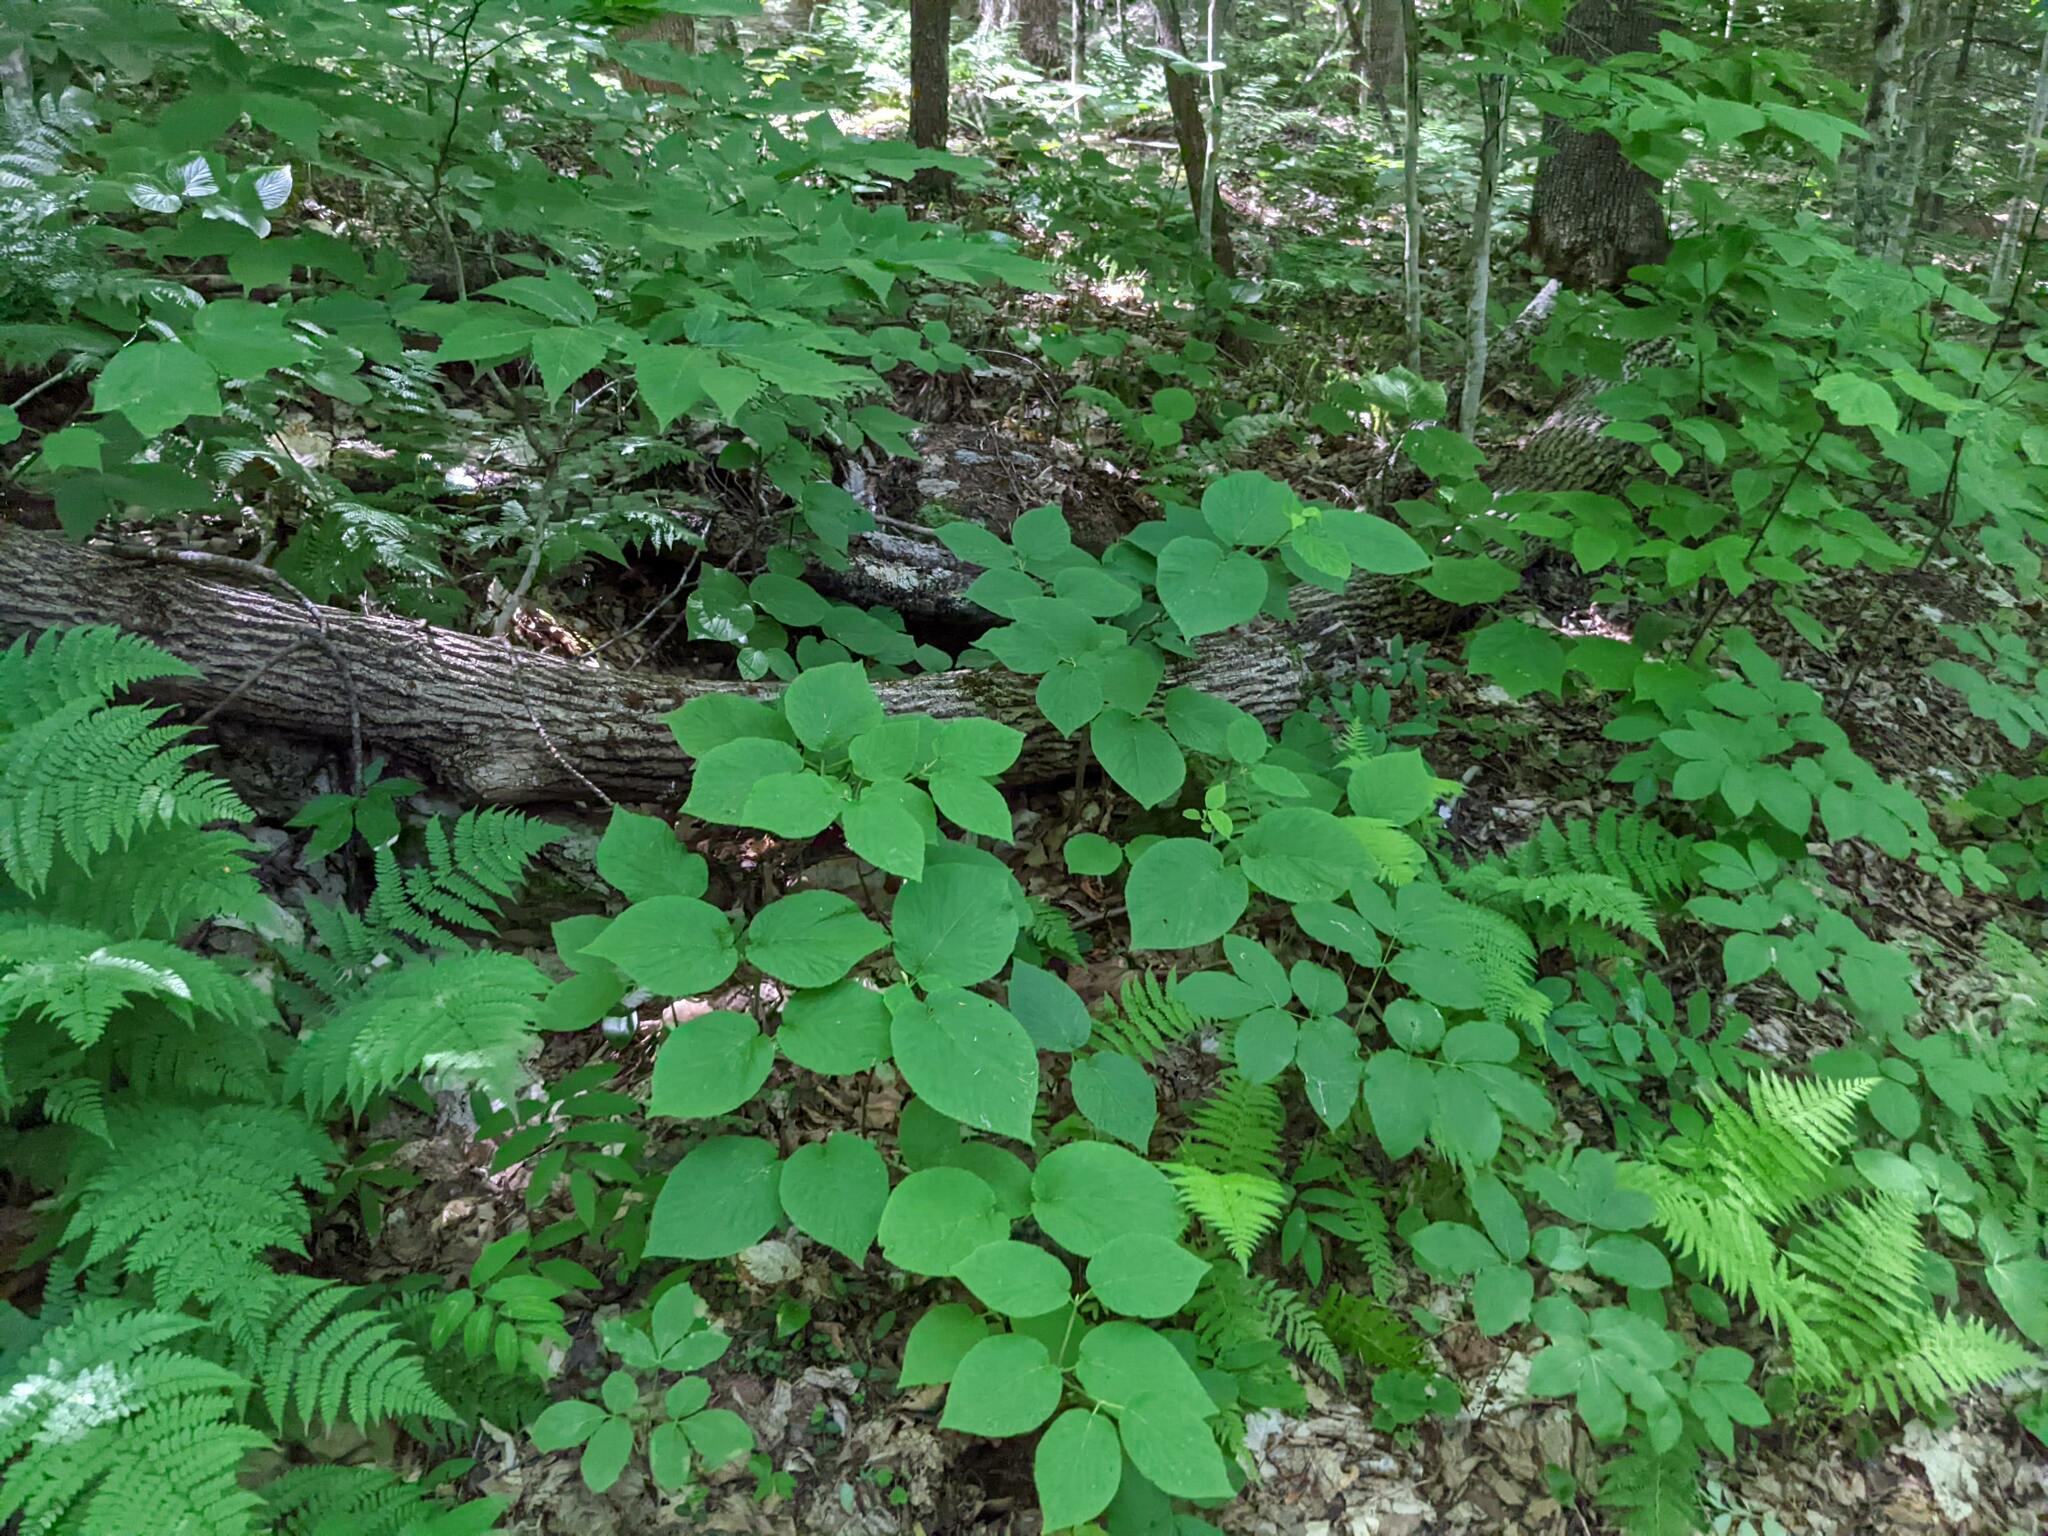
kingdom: Plantae
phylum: Tracheophyta
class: Magnoliopsida
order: Dipsacales
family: Viburnaceae
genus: Viburnum
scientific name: Viburnum lantanoides
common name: Hobblebush
